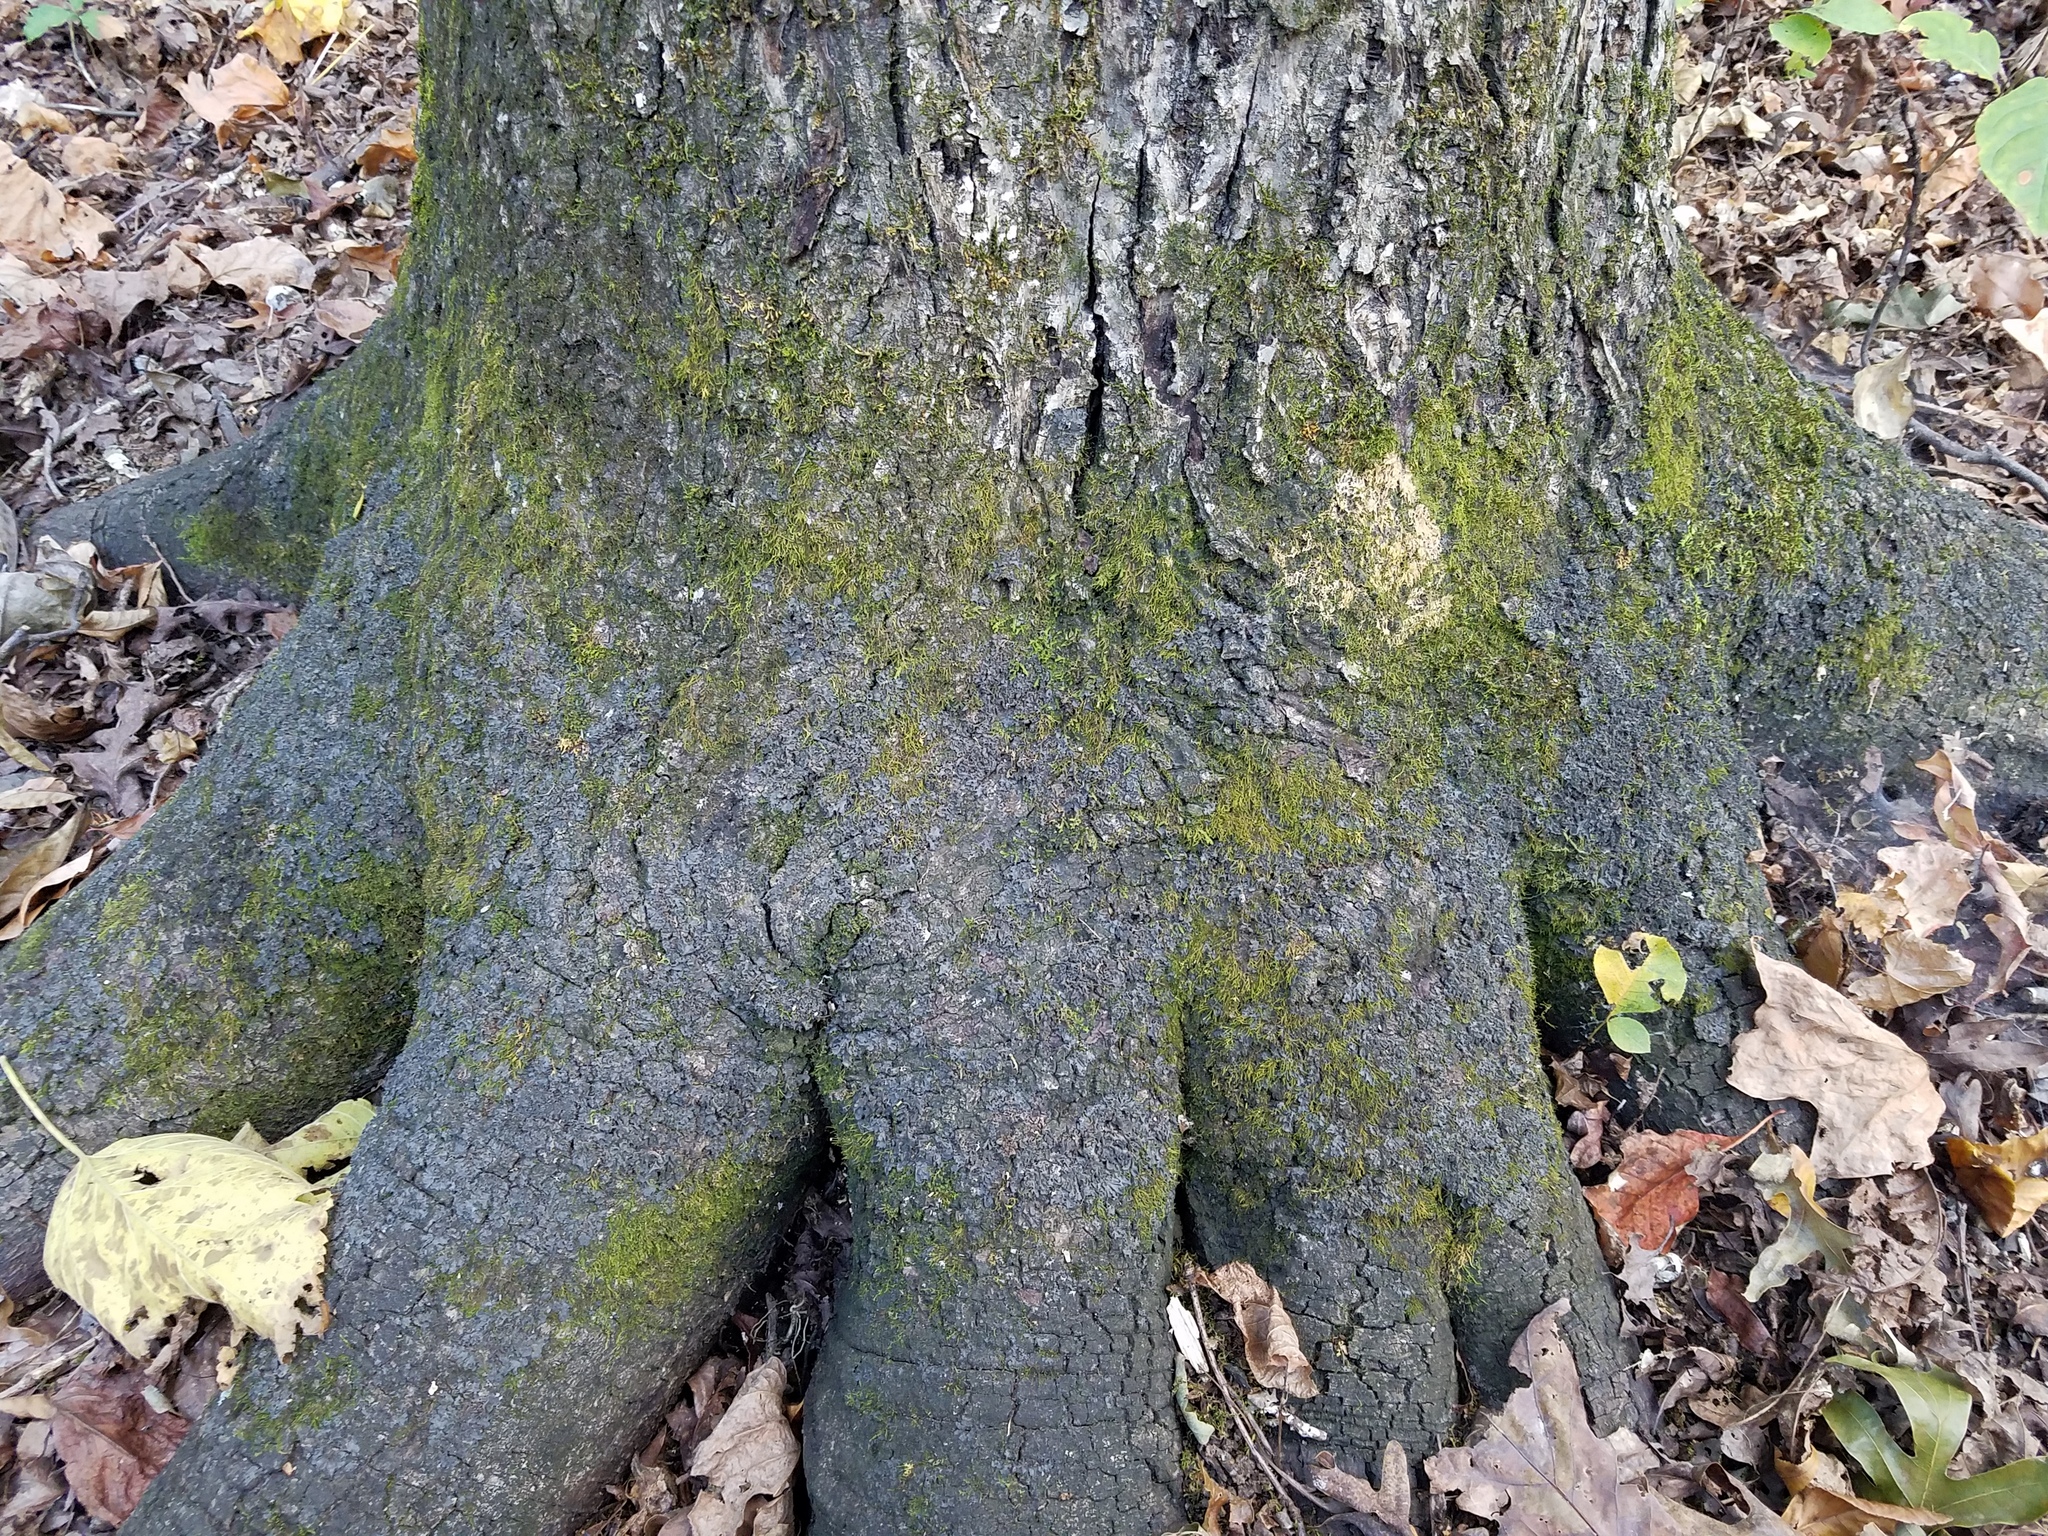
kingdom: Fungi
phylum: Ascomycota
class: Lecanoromycetes
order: Peltigerales
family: Collemataceae
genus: Leptogium
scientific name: Leptogium austroamericanum
